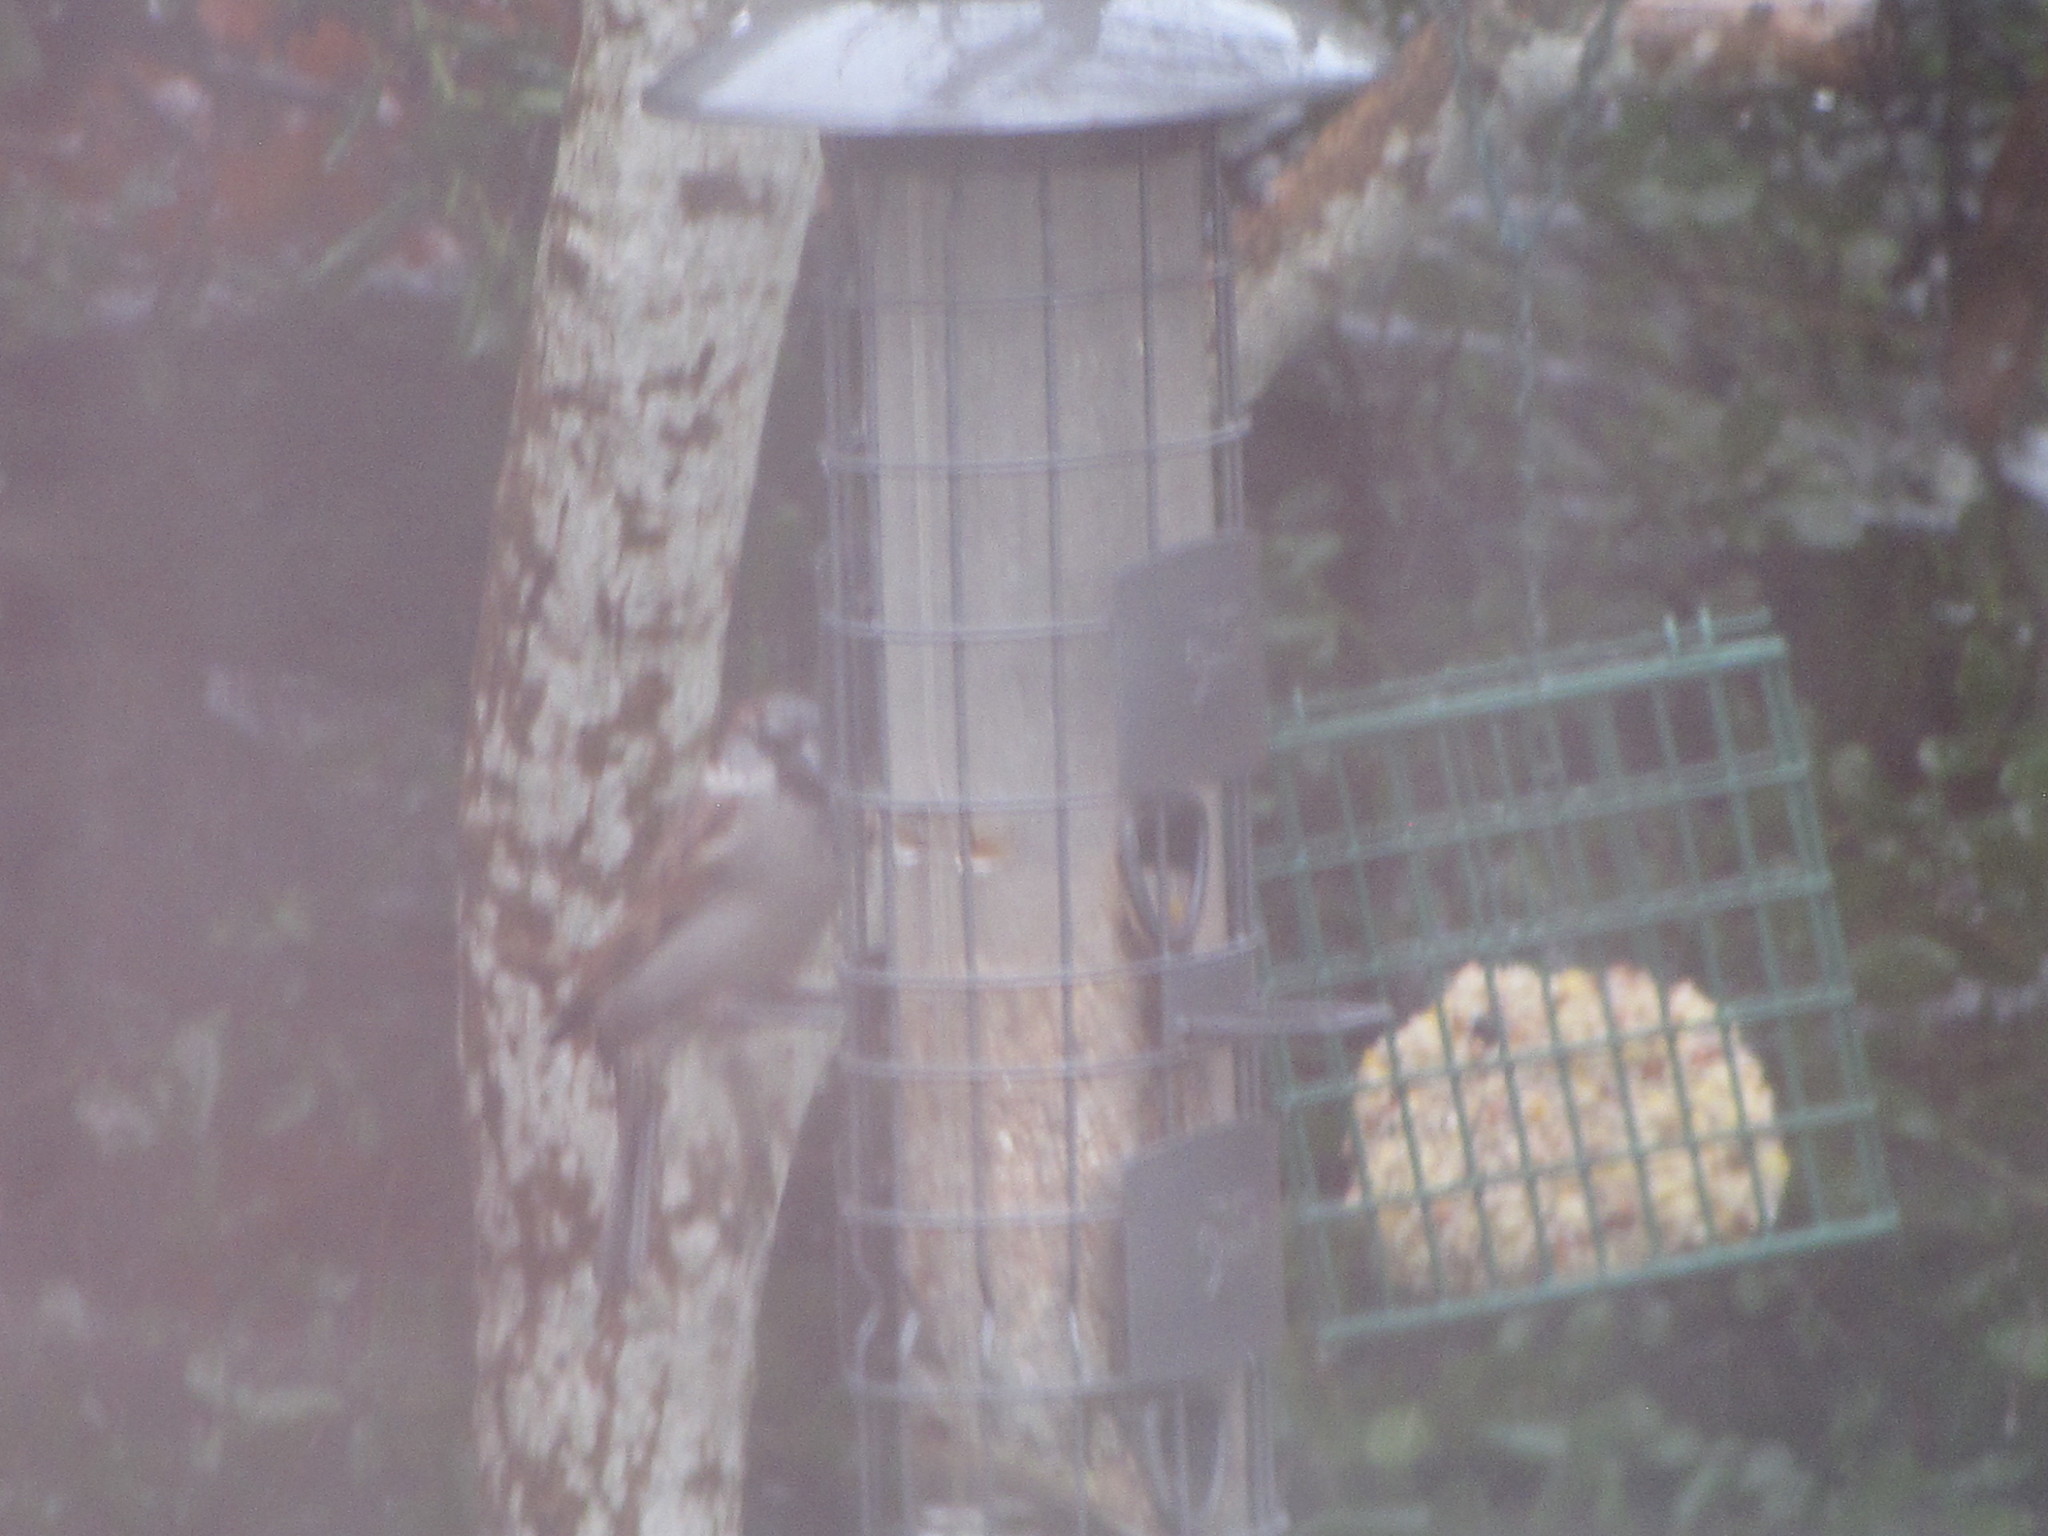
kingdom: Animalia
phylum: Chordata
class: Aves
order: Passeriformes
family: Passeridae
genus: Passer
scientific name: Passer domesticus
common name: House sparrow
